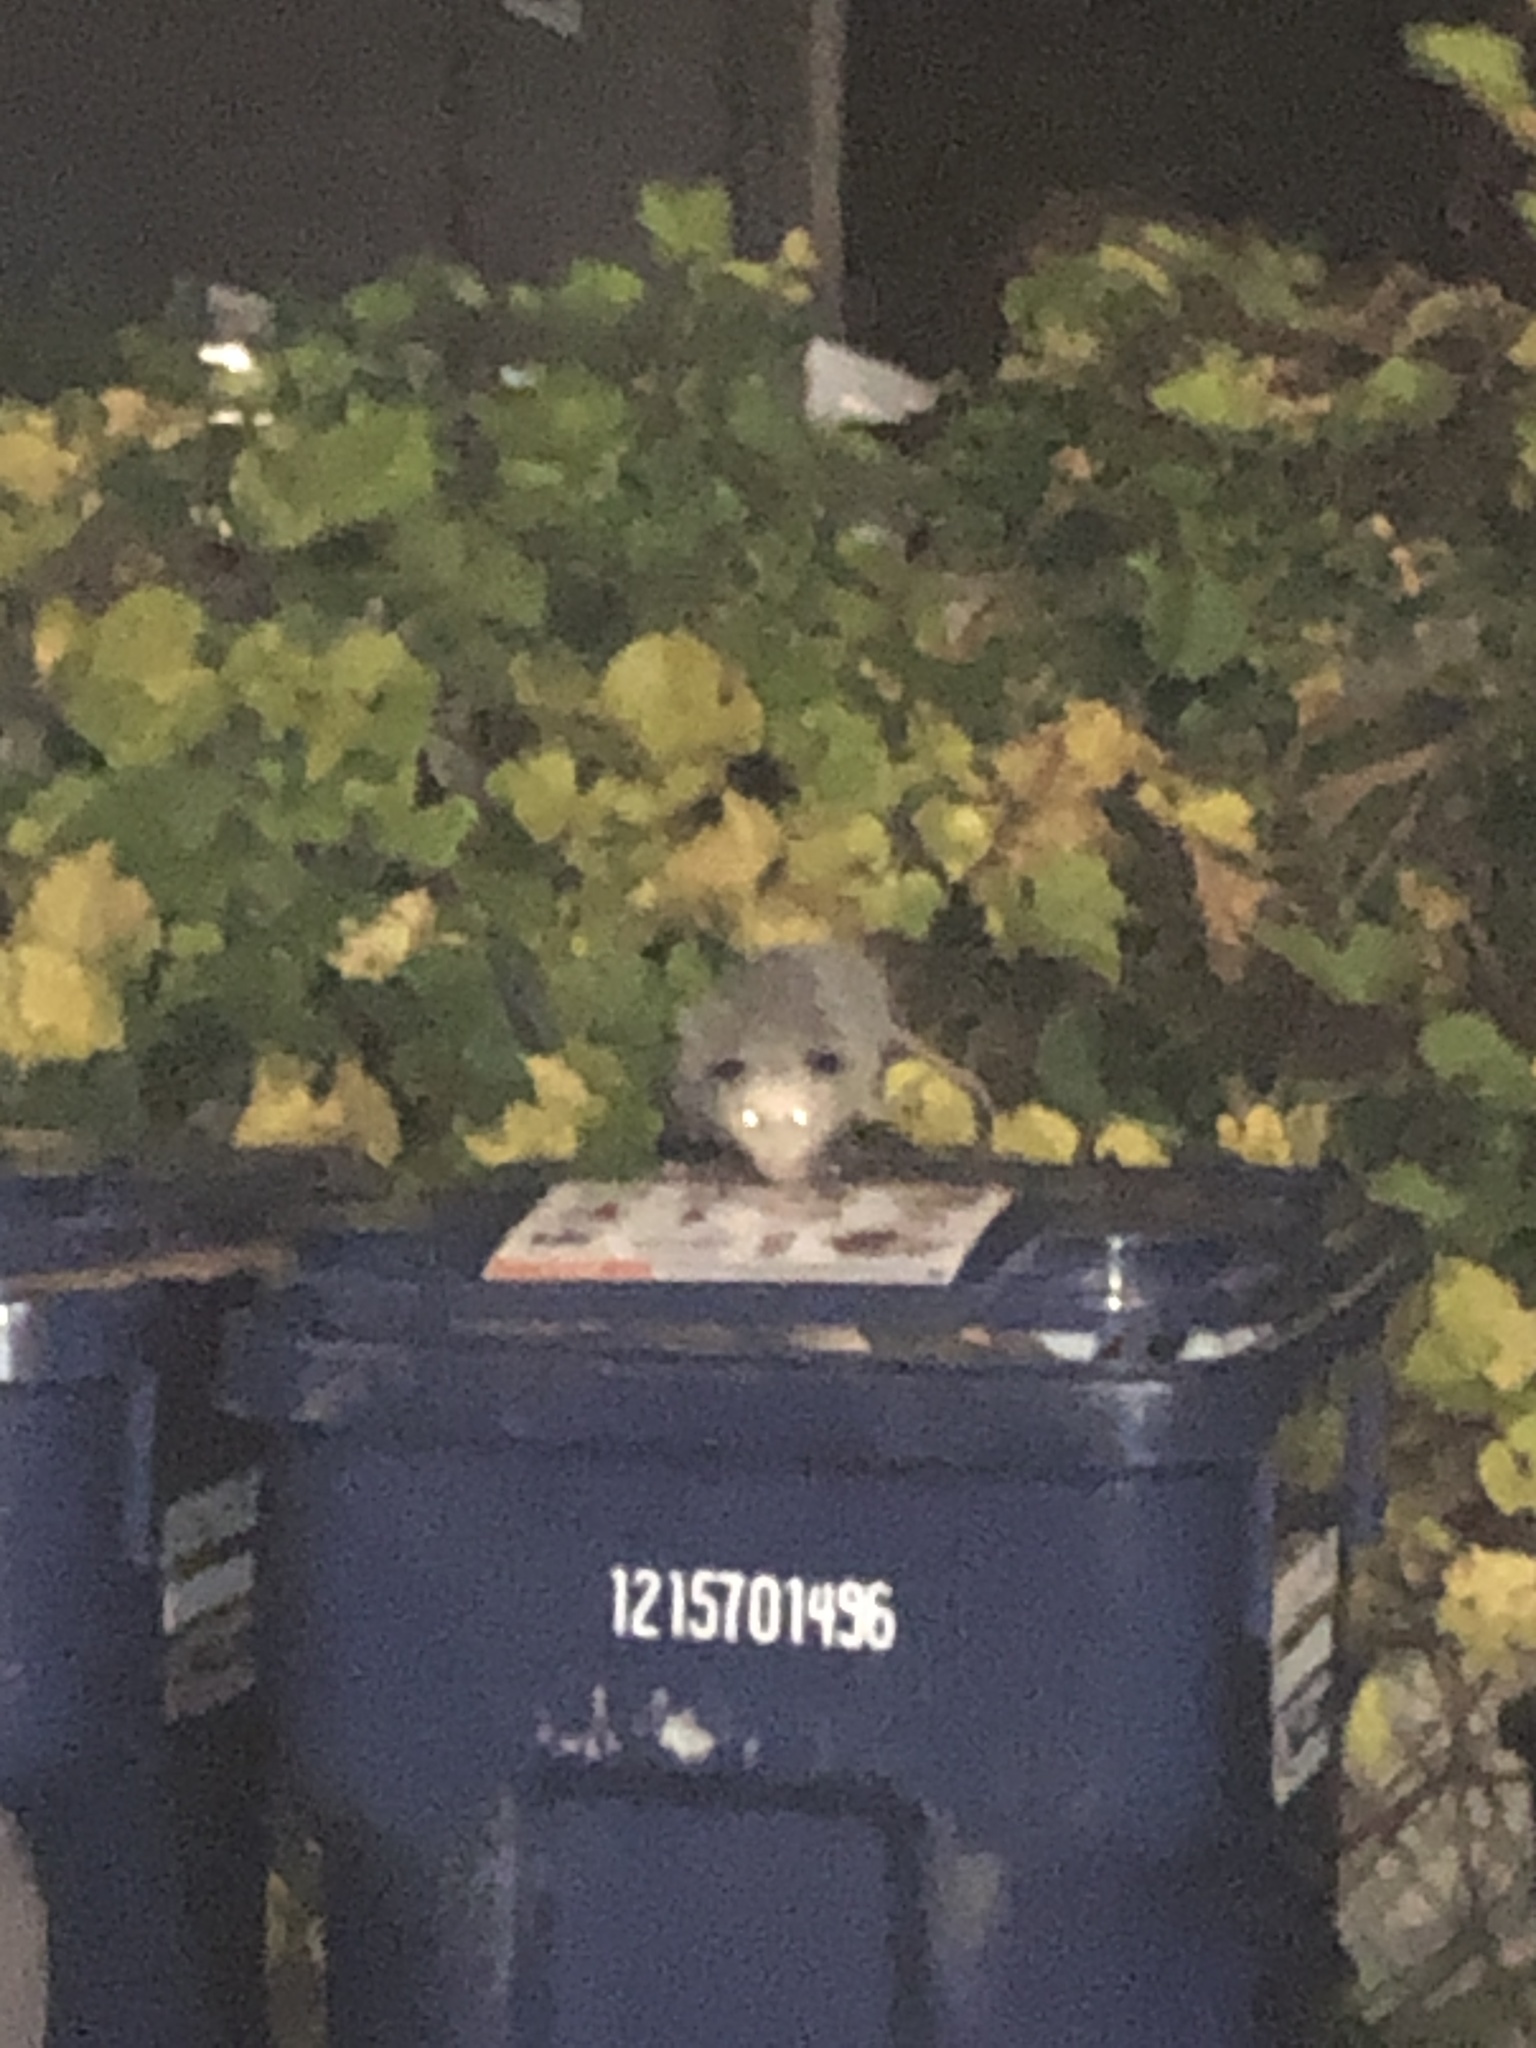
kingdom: Animalia
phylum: Chordata
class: Mammalia
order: Didelphimorphia
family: Didelphidae
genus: Didelphis
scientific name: Didelphis virginiana
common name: Virginia opossum
